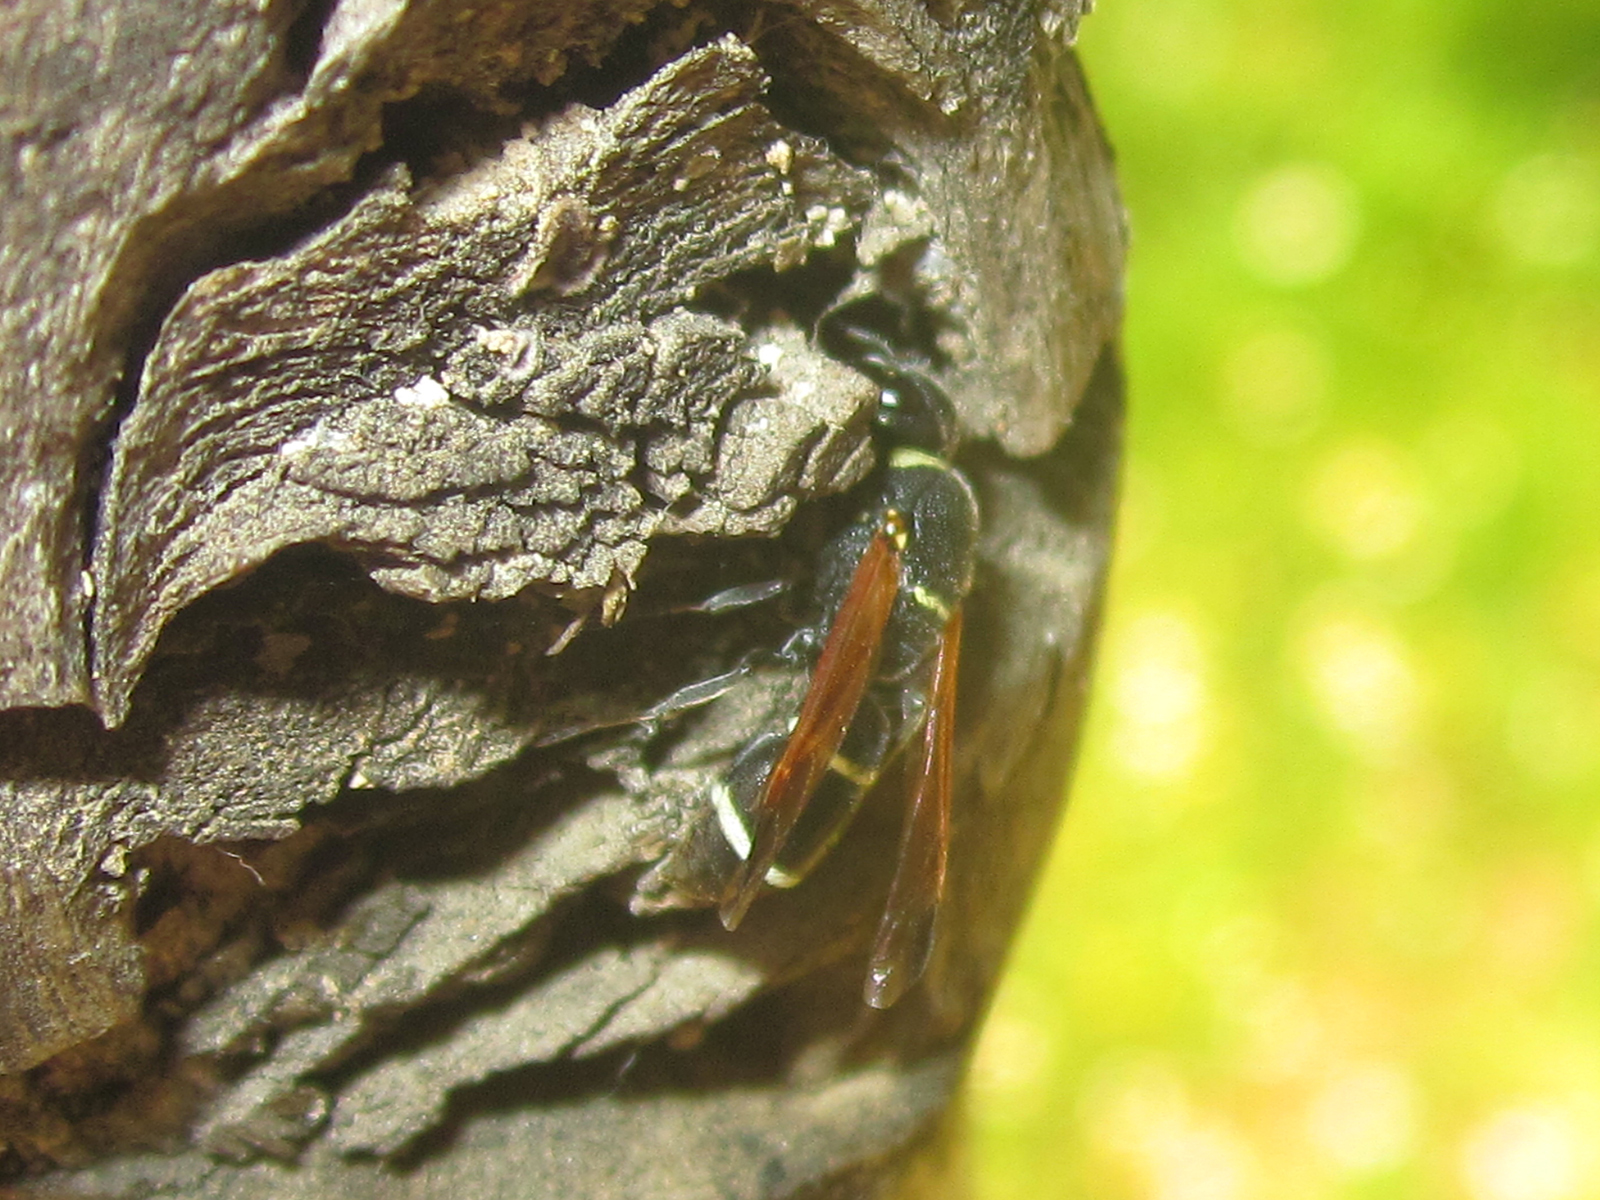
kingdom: Animalia
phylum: Arthropoda
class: Insecta
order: Hymenoptera
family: Eumenidae
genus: Ancistroceroides
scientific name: Ancistroceroides ambiguus
